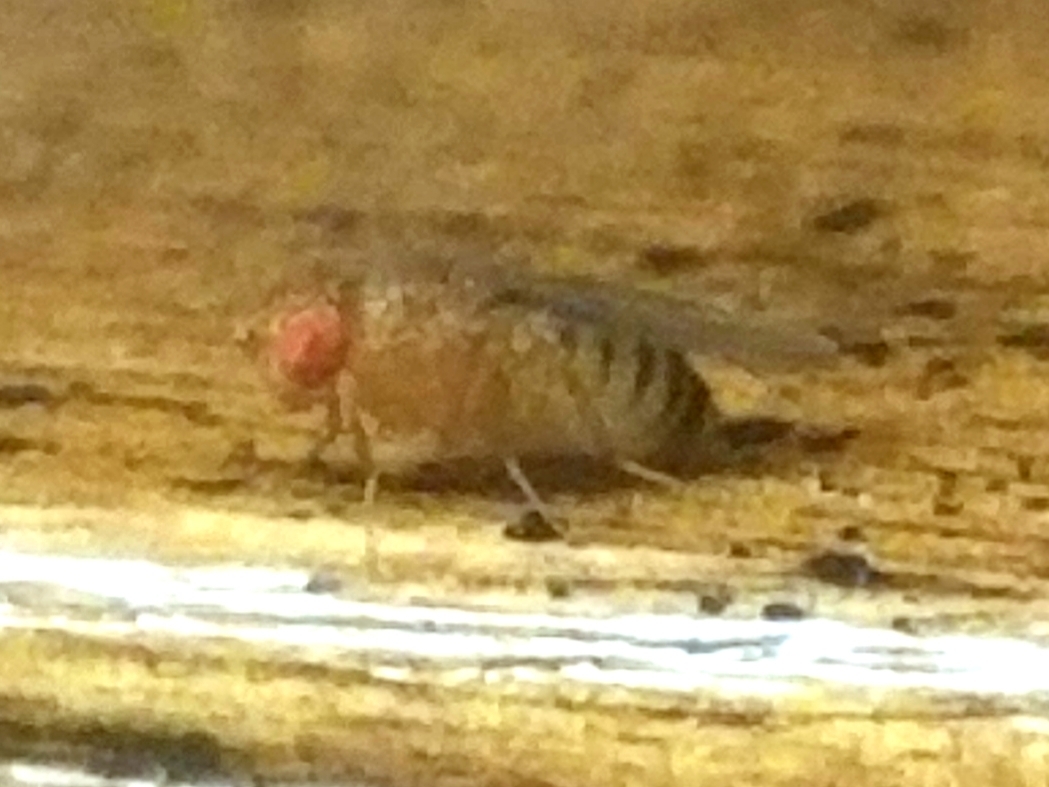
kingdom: Animalia
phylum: Arthropoda
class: Insecta
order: Diptera
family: Drosophilidae
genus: Drosophila
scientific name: Drosophila
